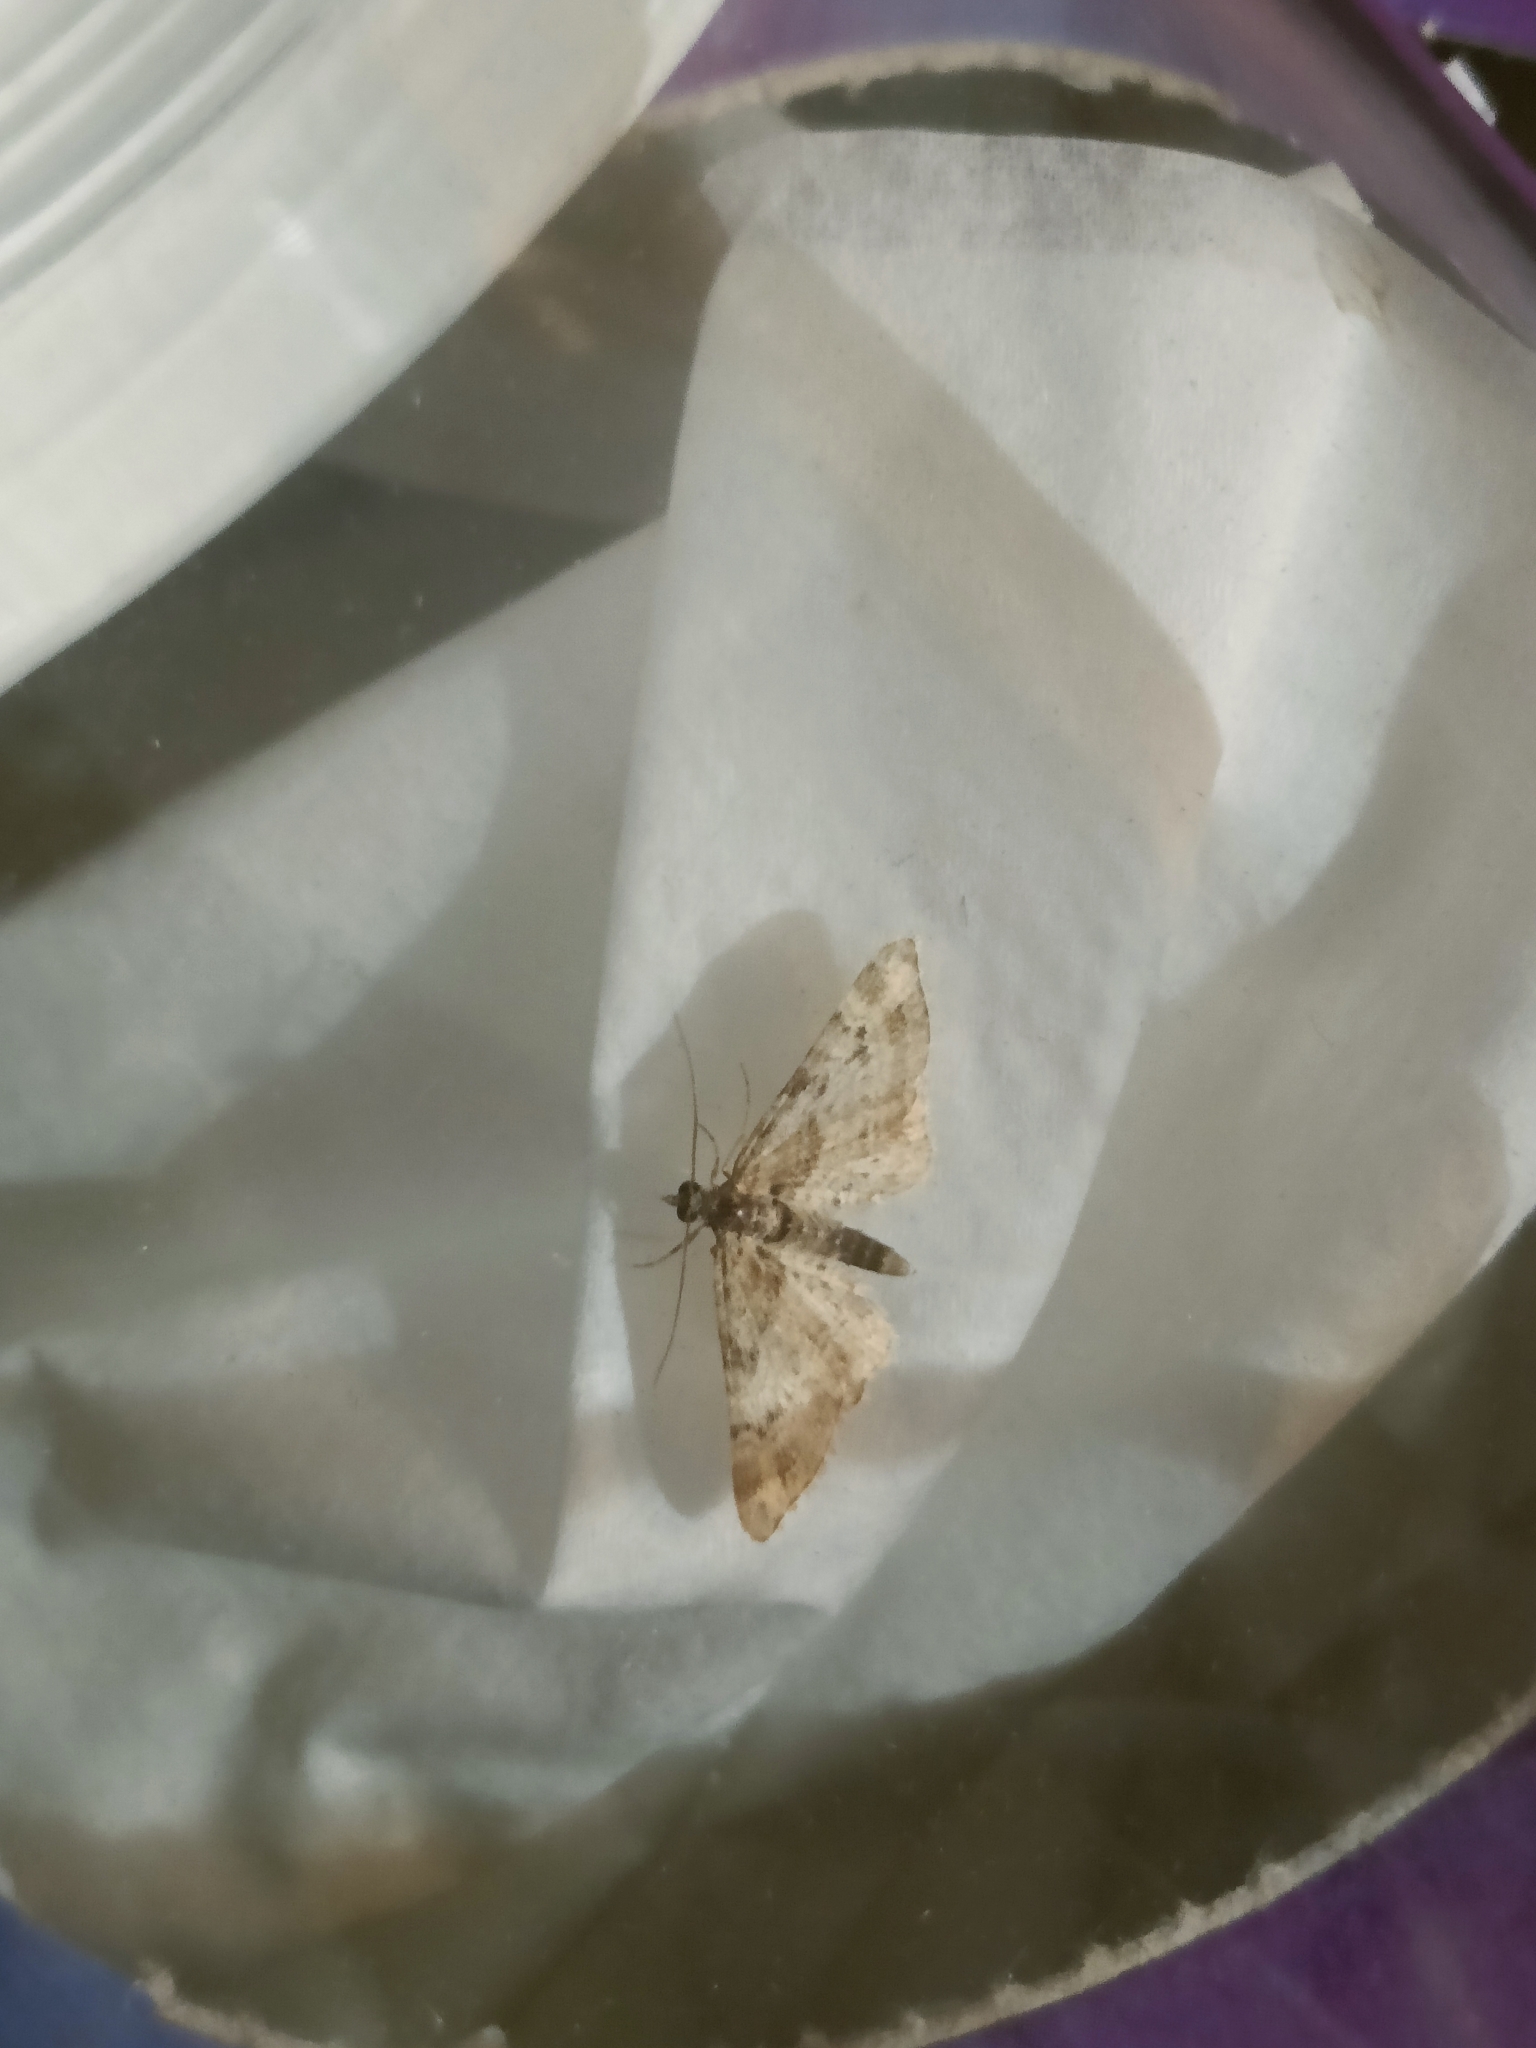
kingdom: Animalia
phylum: Arthropoda
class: Insecta
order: Lepidoptera
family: Geometridae
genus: Gymnoscelis
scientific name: Gymnoscelis rufifasciata
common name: Double-striped pug
